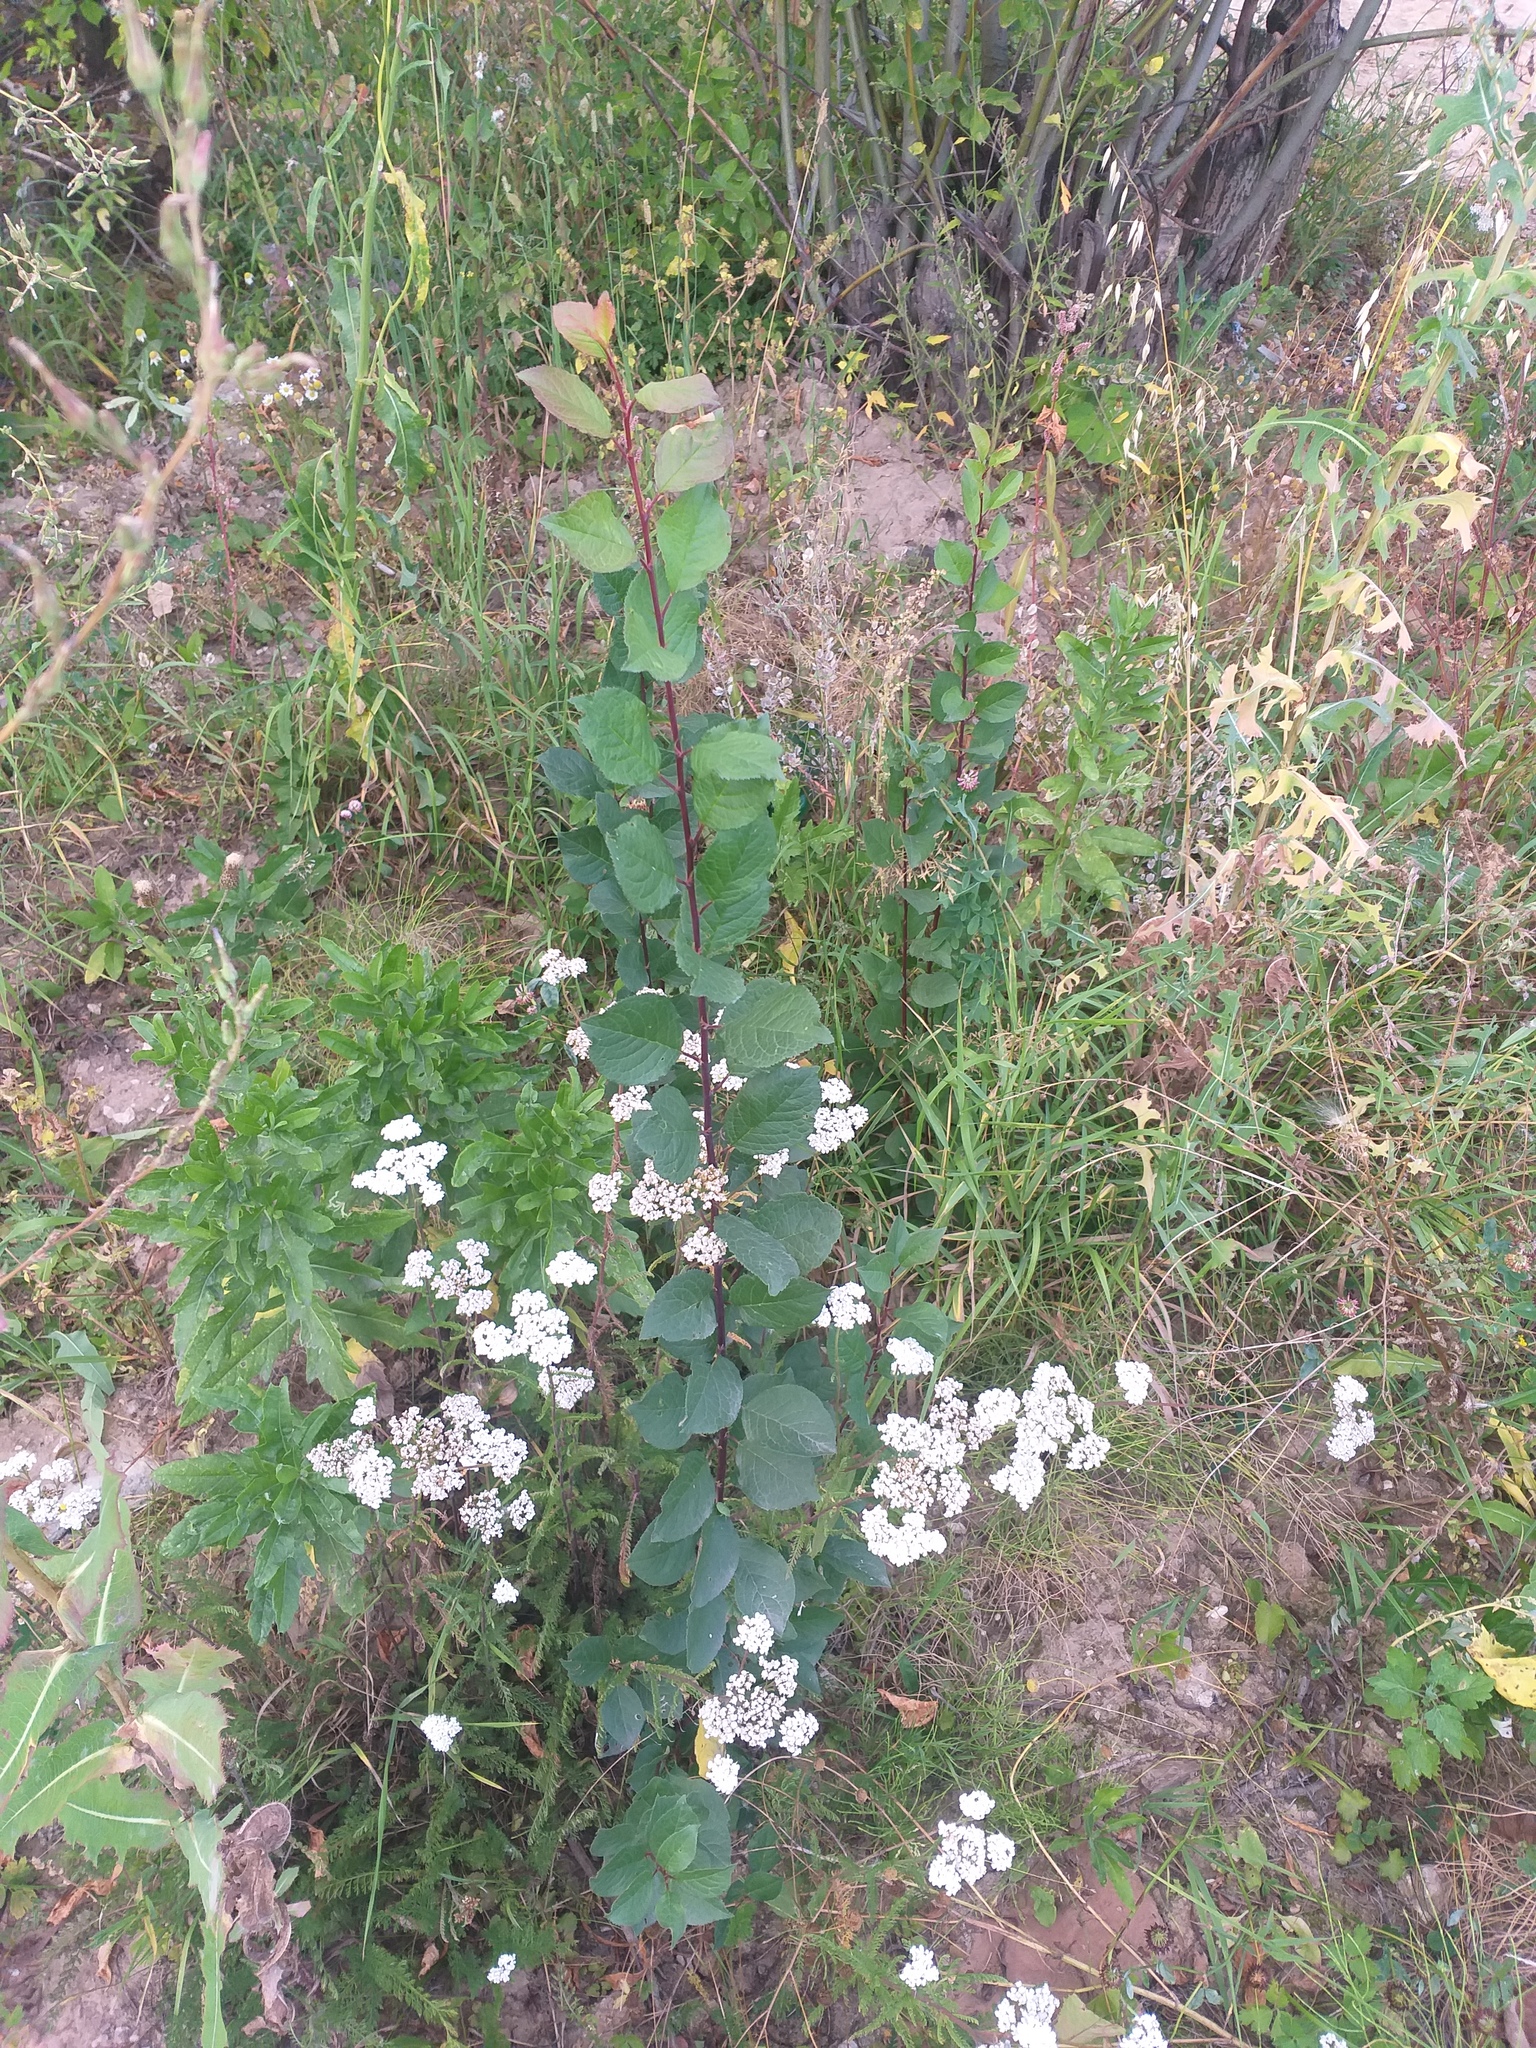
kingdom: Plantae
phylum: Tracheophyta
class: Magnoliopsida
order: Rosales
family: Rosaceae
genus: Prunus
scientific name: Prunus domestica
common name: Wild plum
